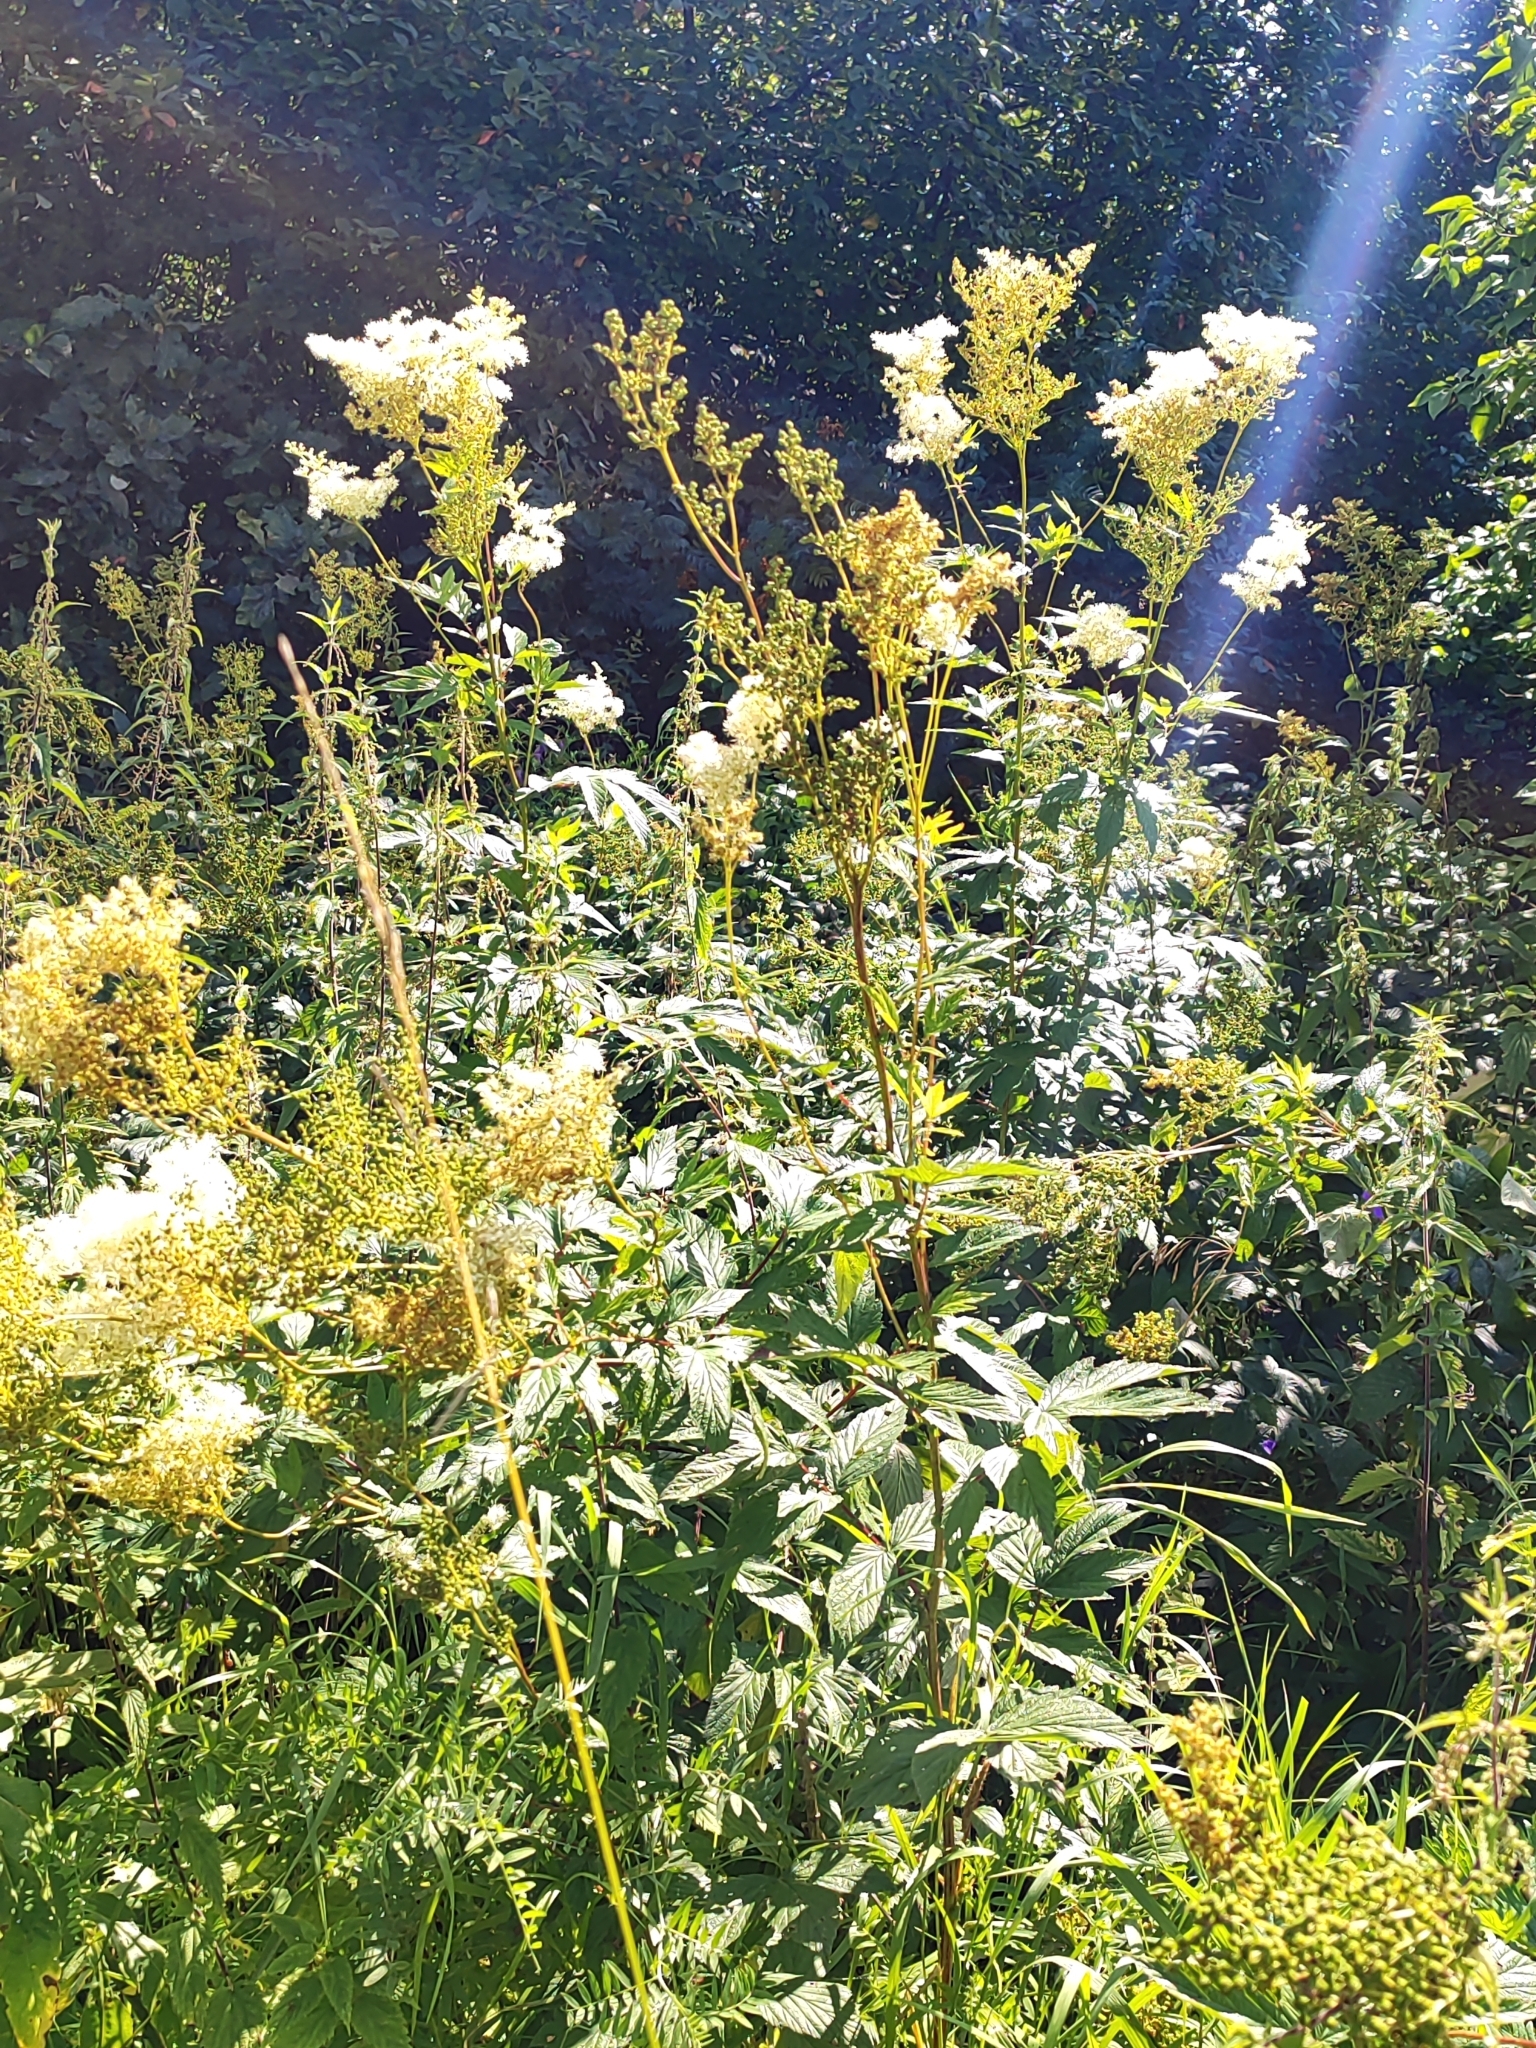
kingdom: Plantae
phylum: Tracheophyta
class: Magnoliopsida
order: Rosales
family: Rosaceae
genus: Filipendula
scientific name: Filipendula ulmaria
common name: Meadowsweet
